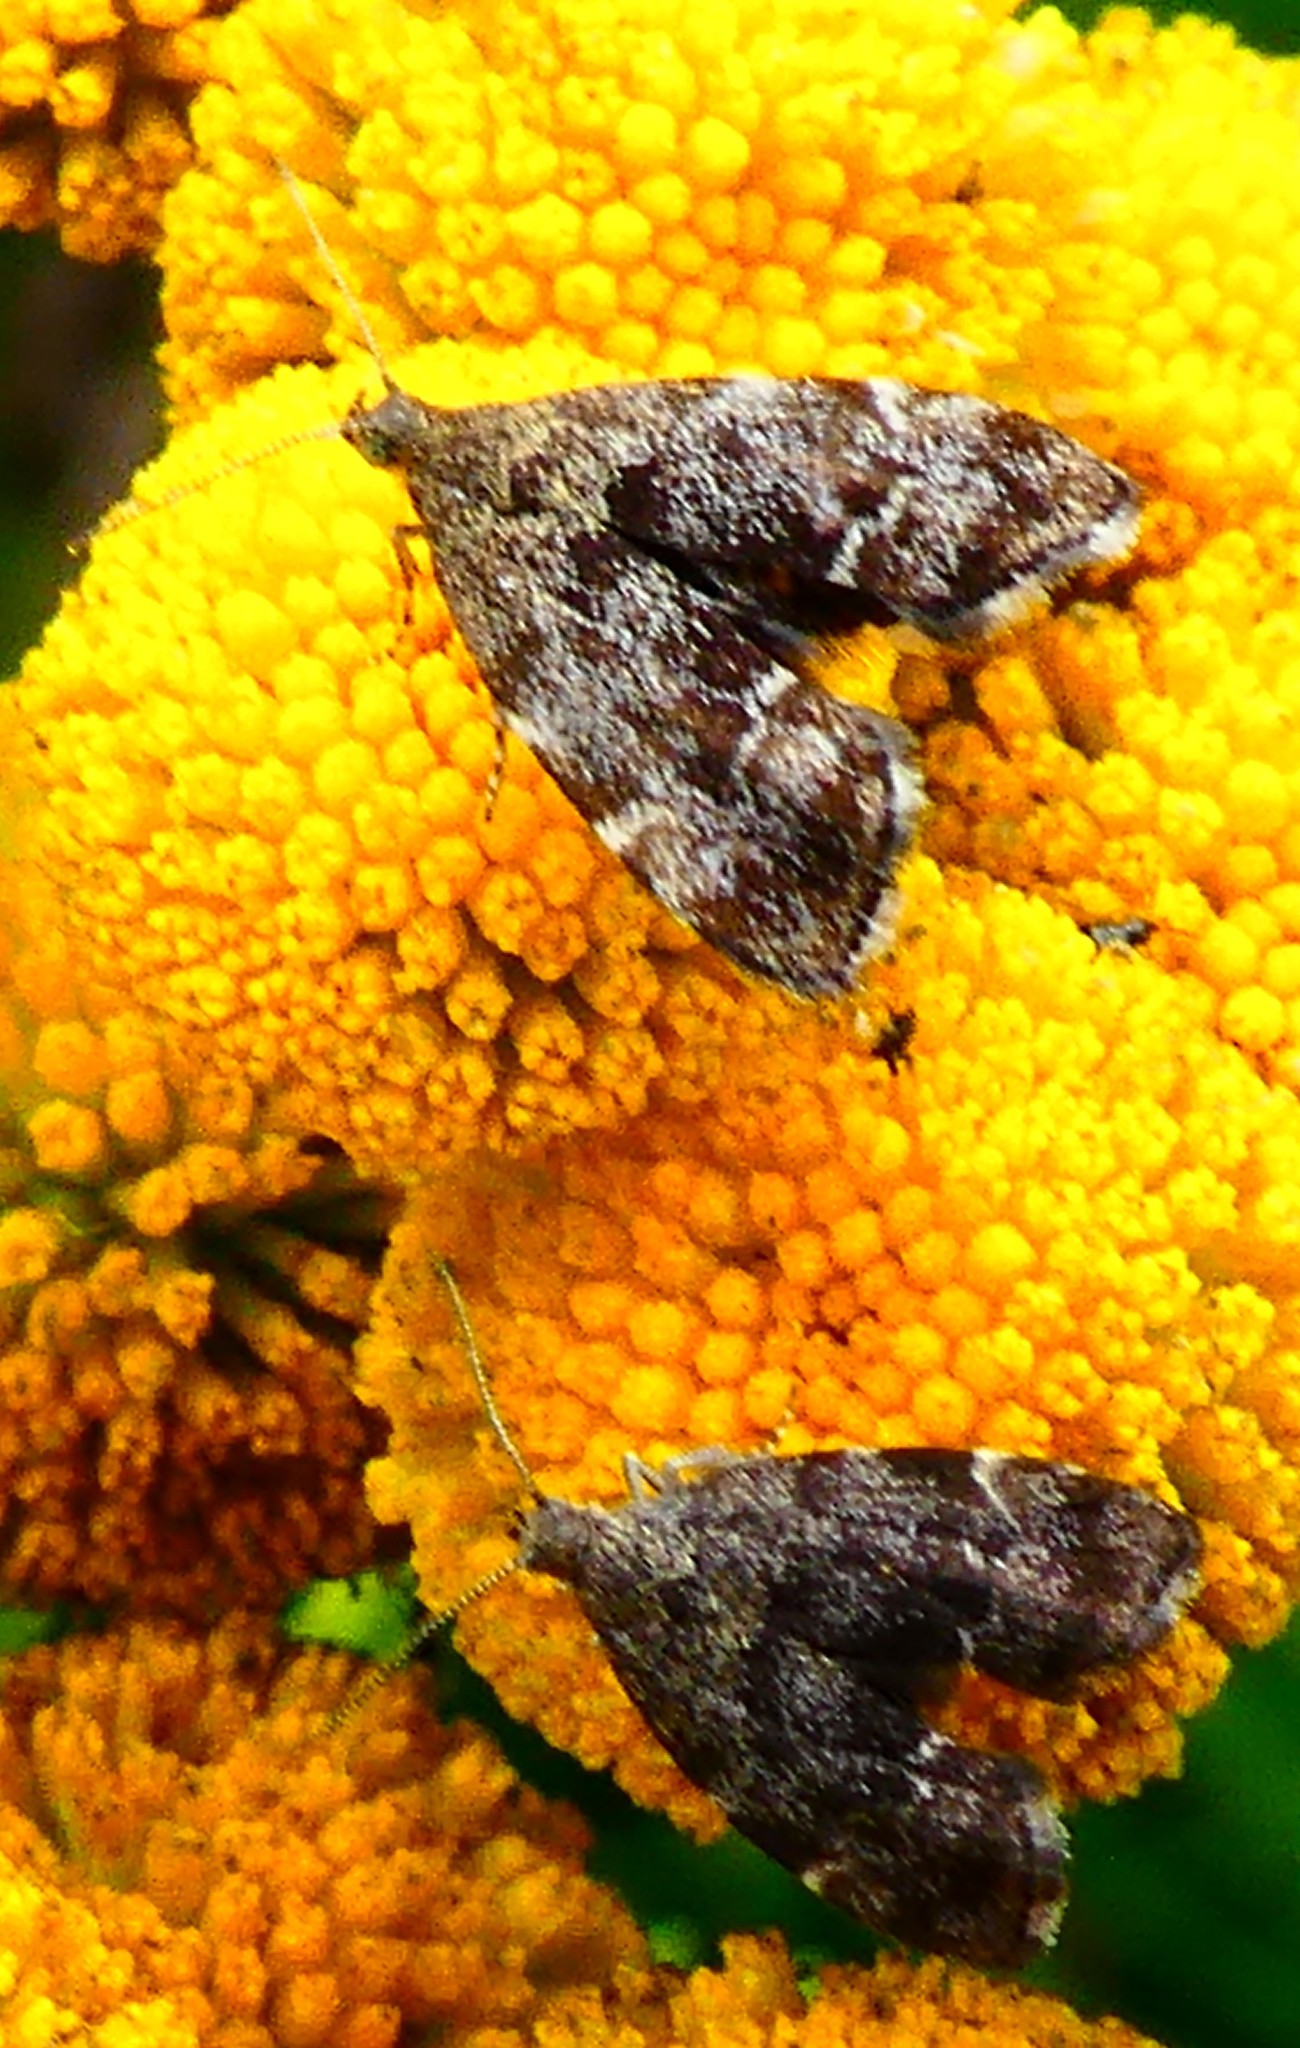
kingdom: Animalia
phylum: Arthropoda
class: Insecta
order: Lepidoptera
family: Choreutidae
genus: Anthophila
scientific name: Anthophila fabriciana
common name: Nettle-tap
